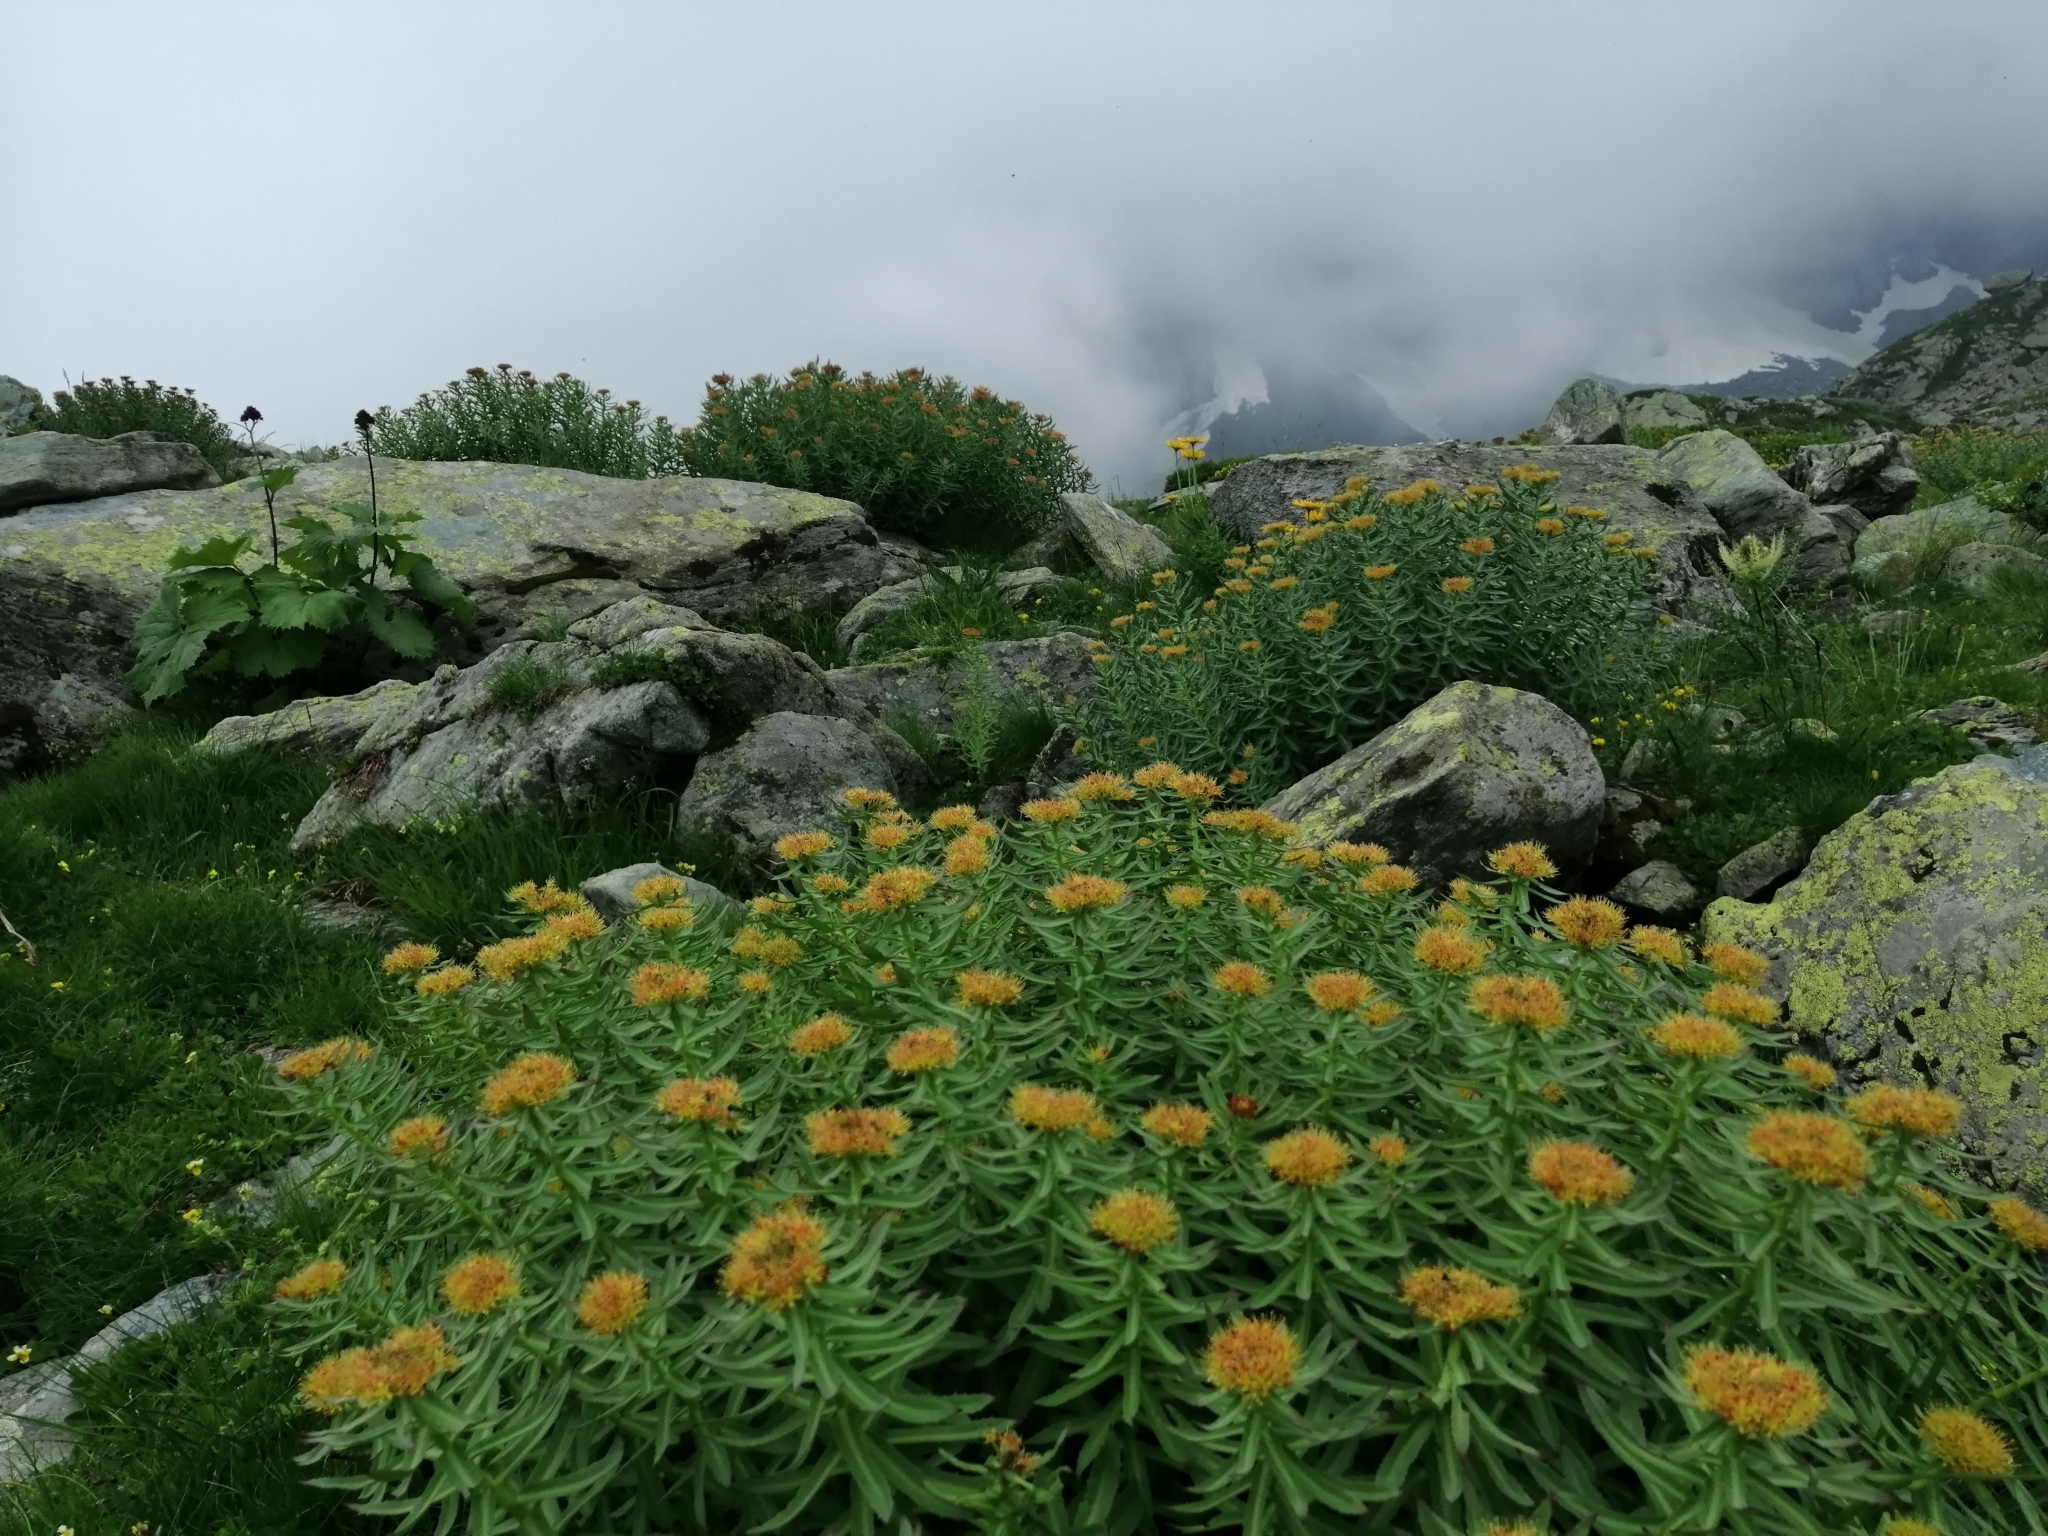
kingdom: Plantae
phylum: Tracheophyta
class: Magnoliopsida
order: Saxifragales
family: Crassulaceae
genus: Rhodiola
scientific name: Rhodiola rosea
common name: Roseroot
